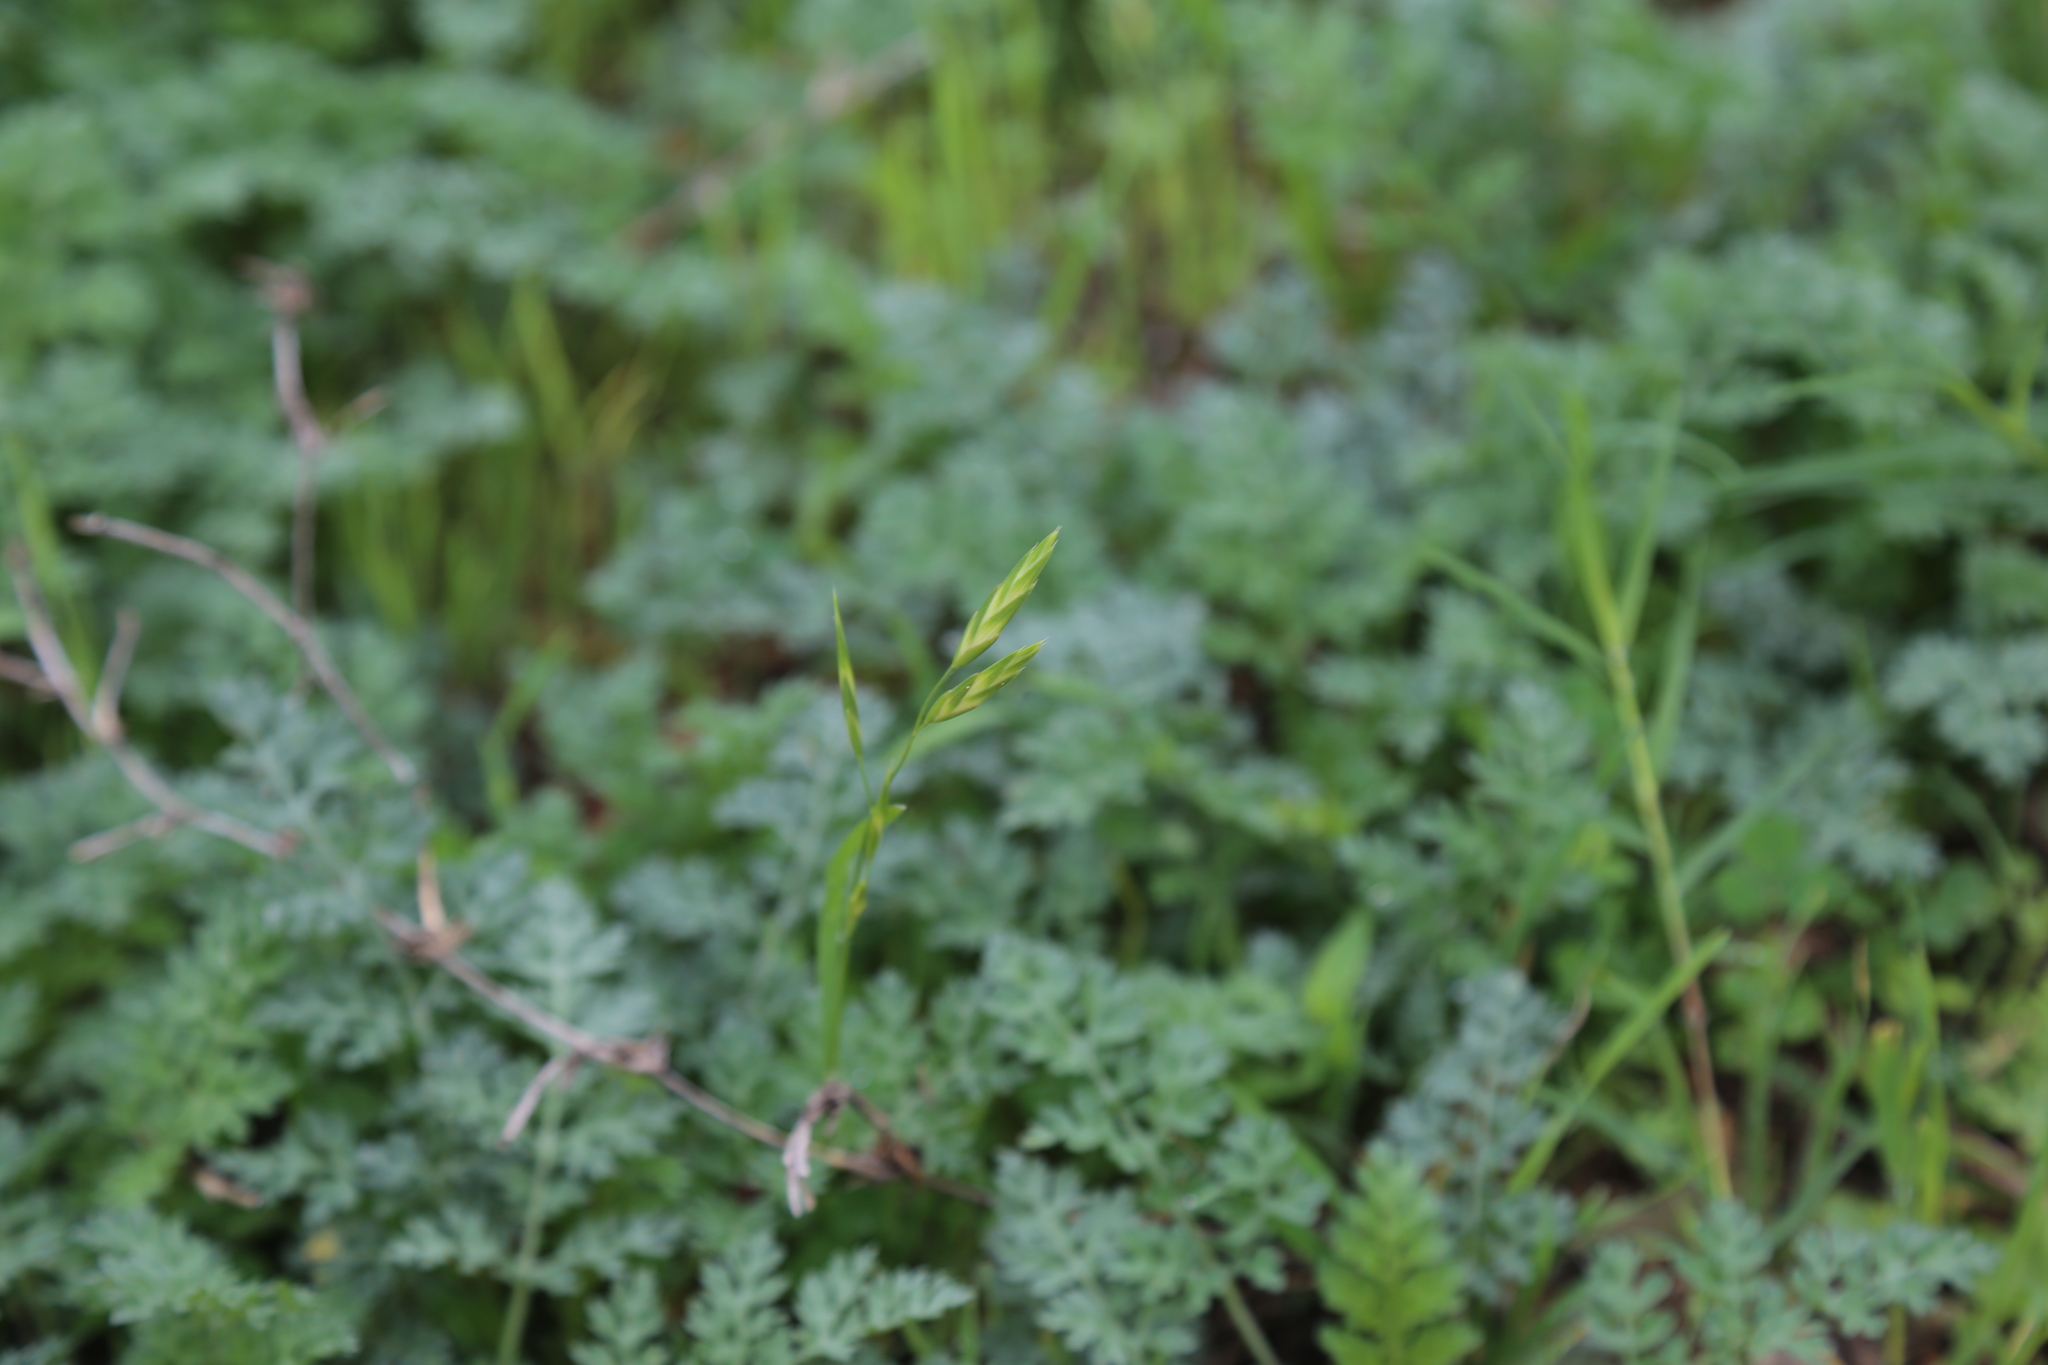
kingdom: Plantae
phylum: Tracheophyta
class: Liliopsida
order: Poales
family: Poaceae
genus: Bromus
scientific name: Bromus catharticus
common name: Rescuegrass
